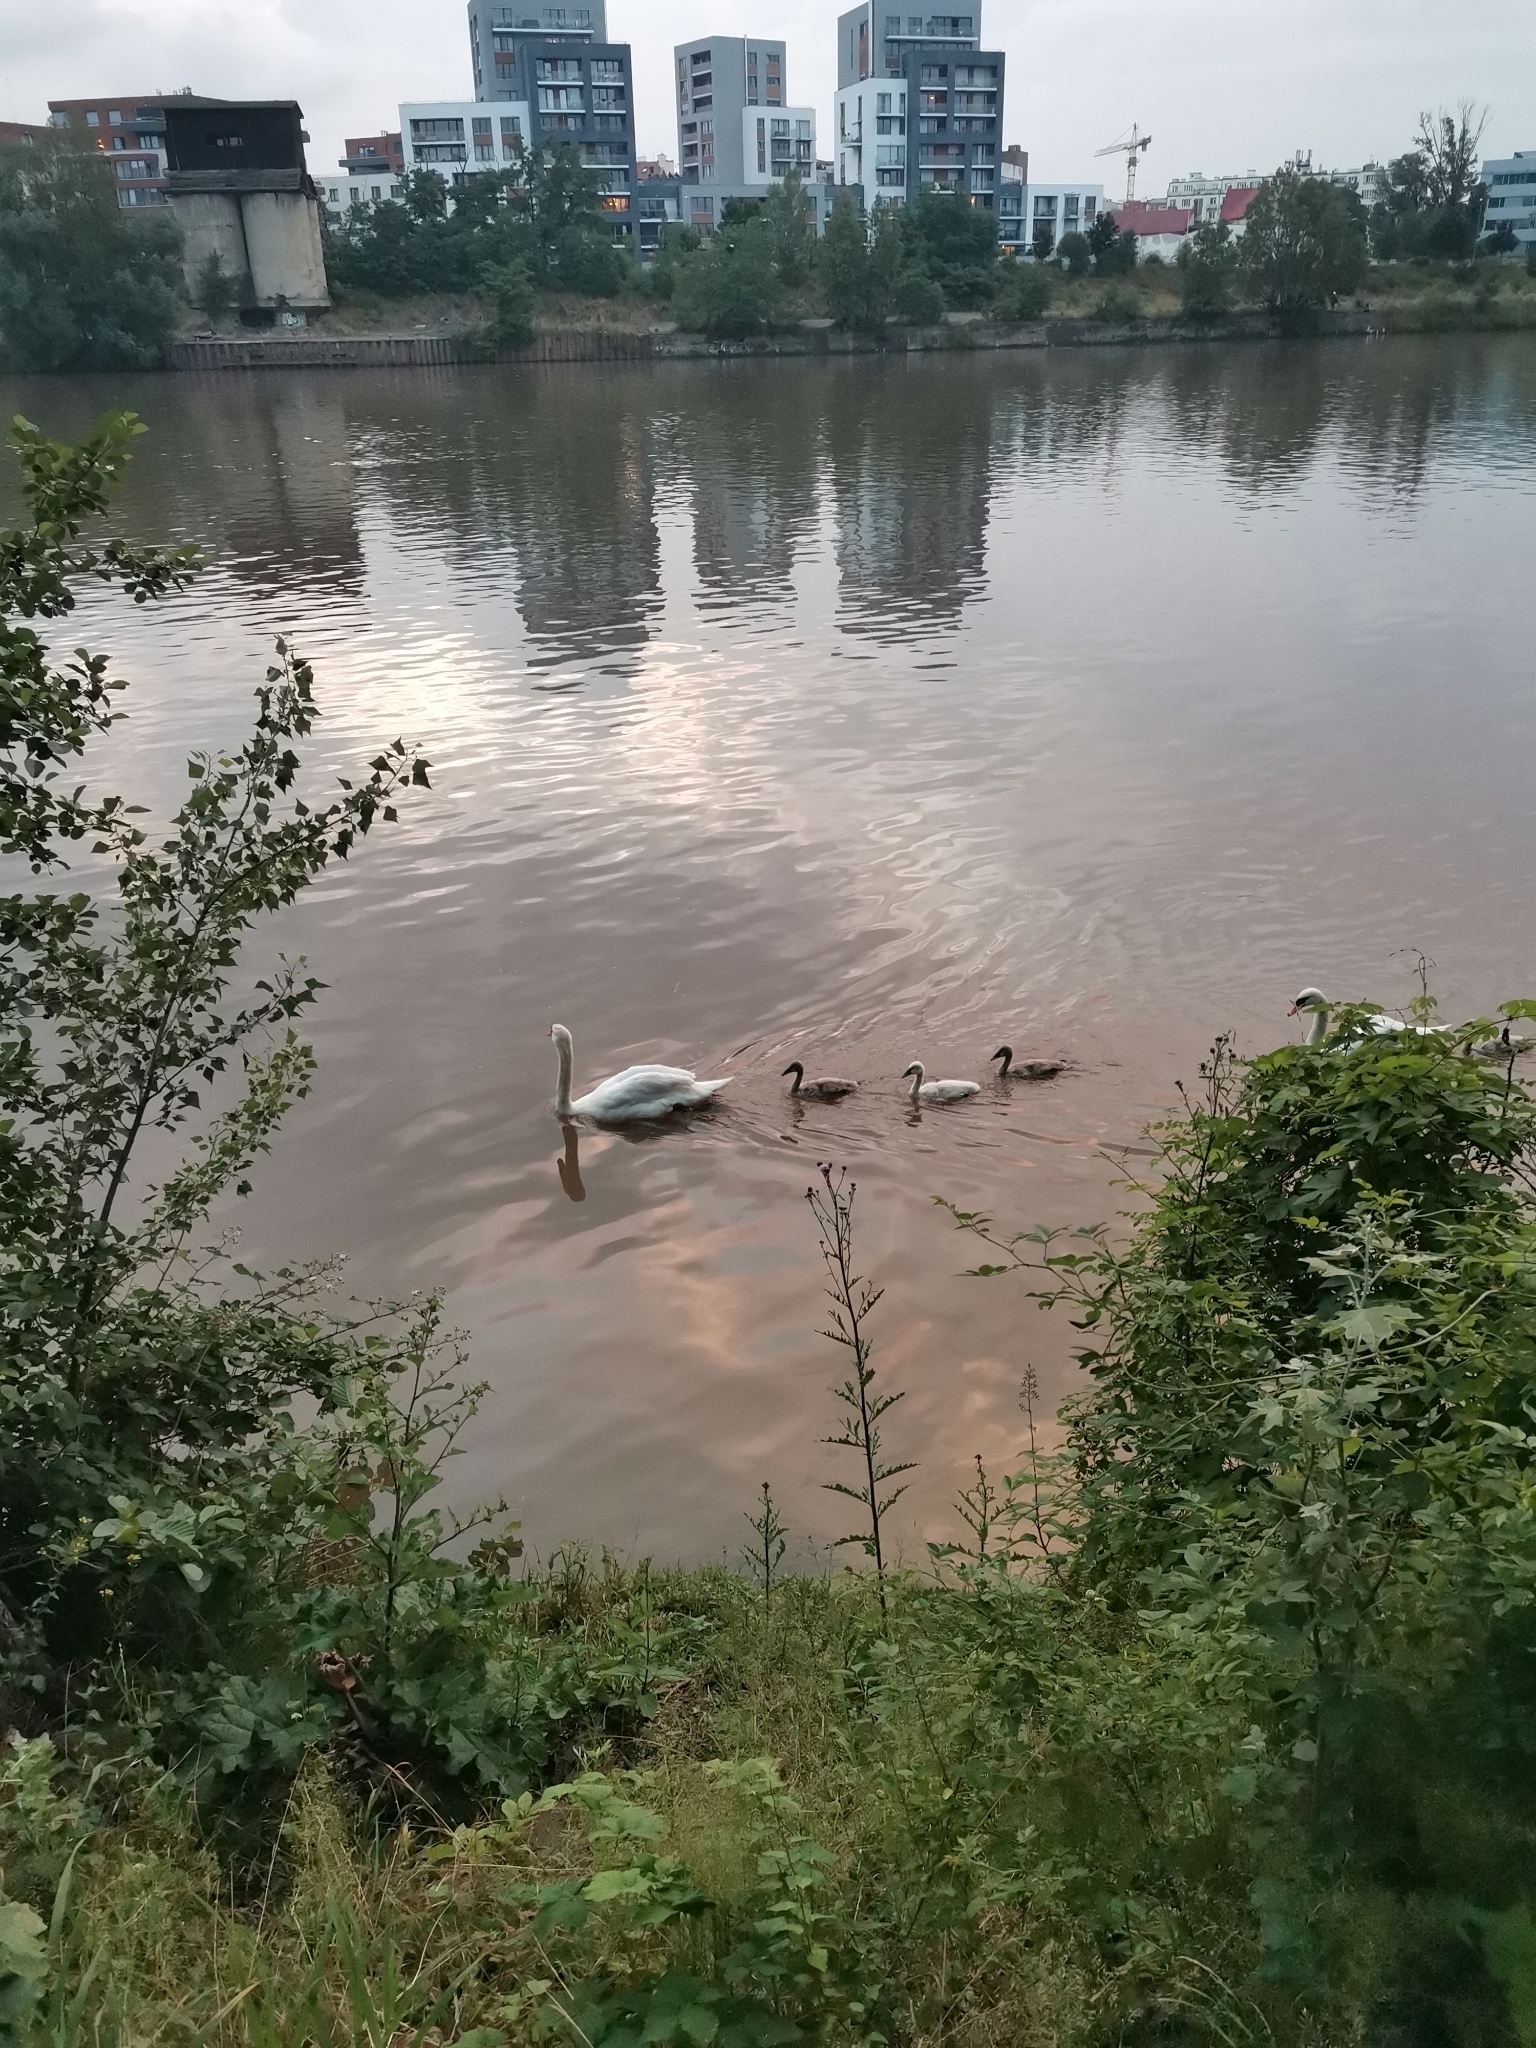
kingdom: Animalia
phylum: Chordata
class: Aves
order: Anseriformes
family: Anatidae
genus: Cygnus
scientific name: Cygnus olor
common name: Mute swan
